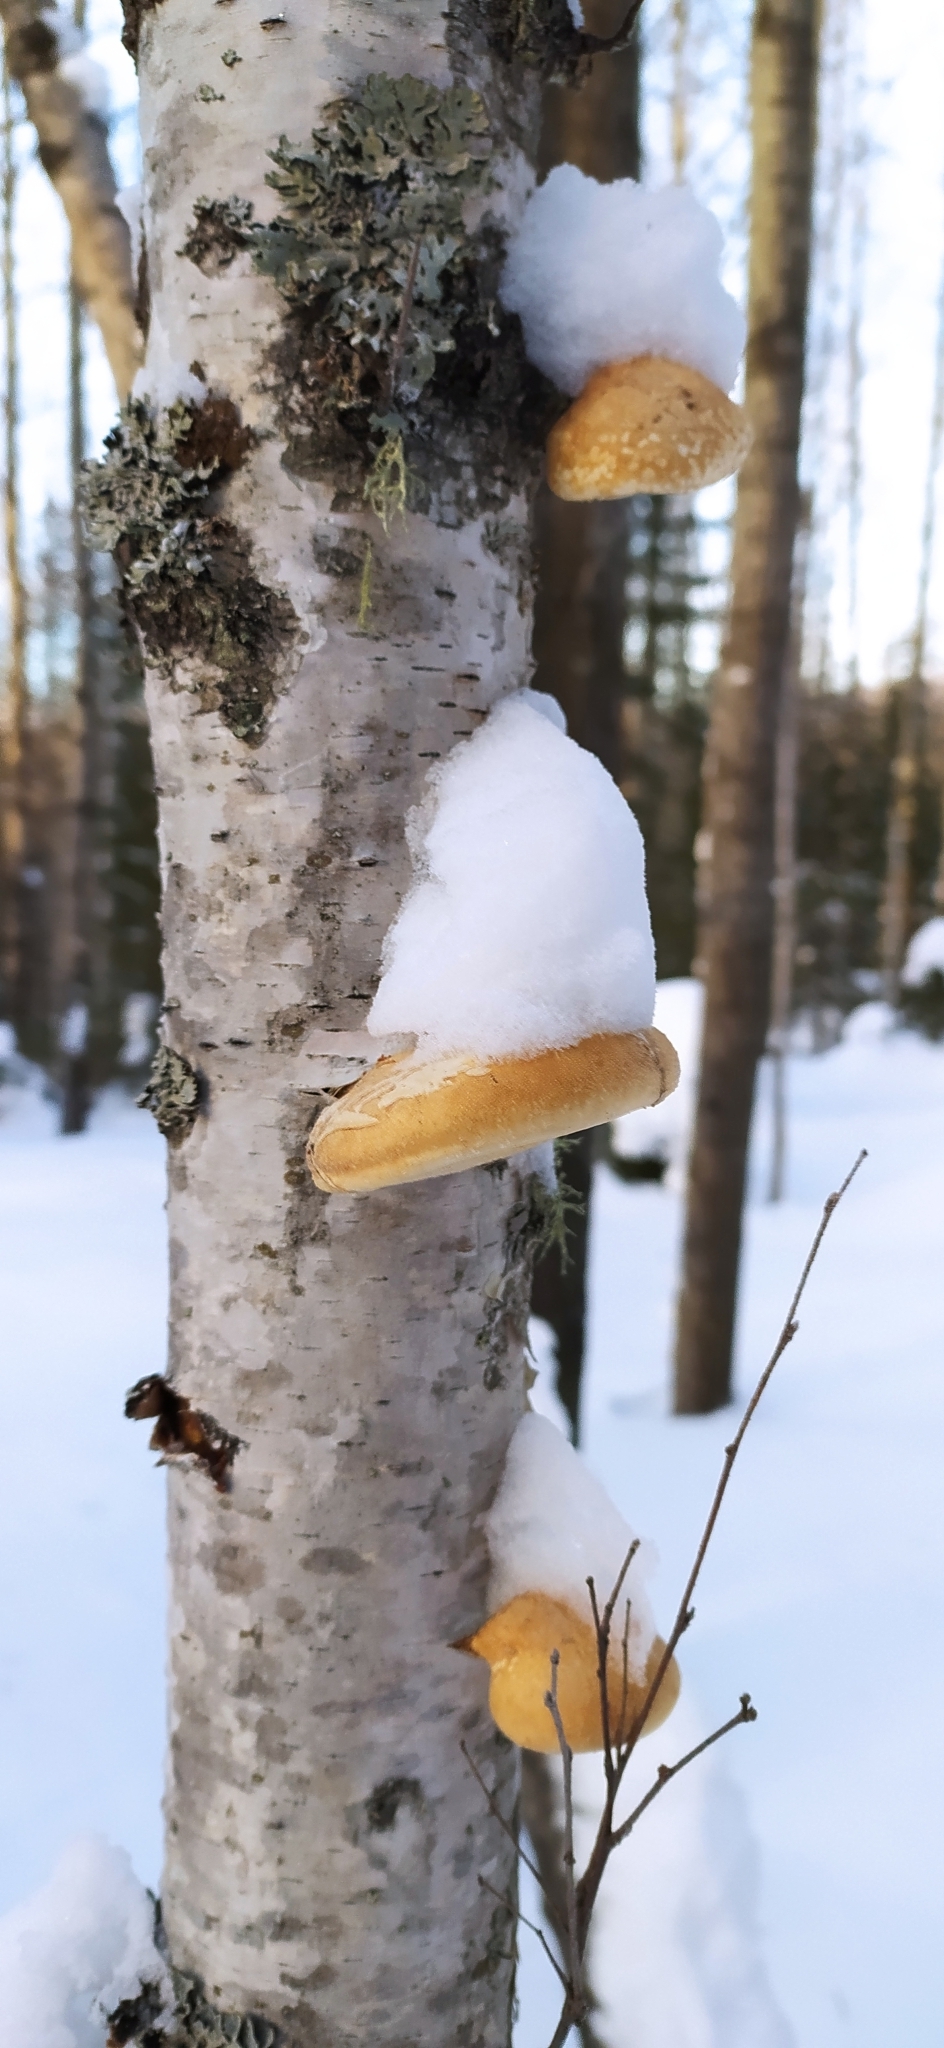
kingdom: Fungi
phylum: Basidiomycota
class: Agaricomycetes
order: Polyporales
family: Fomitopsidaceae
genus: Fomitopsis
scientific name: Fomitopsis betulina
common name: Birch polypore
